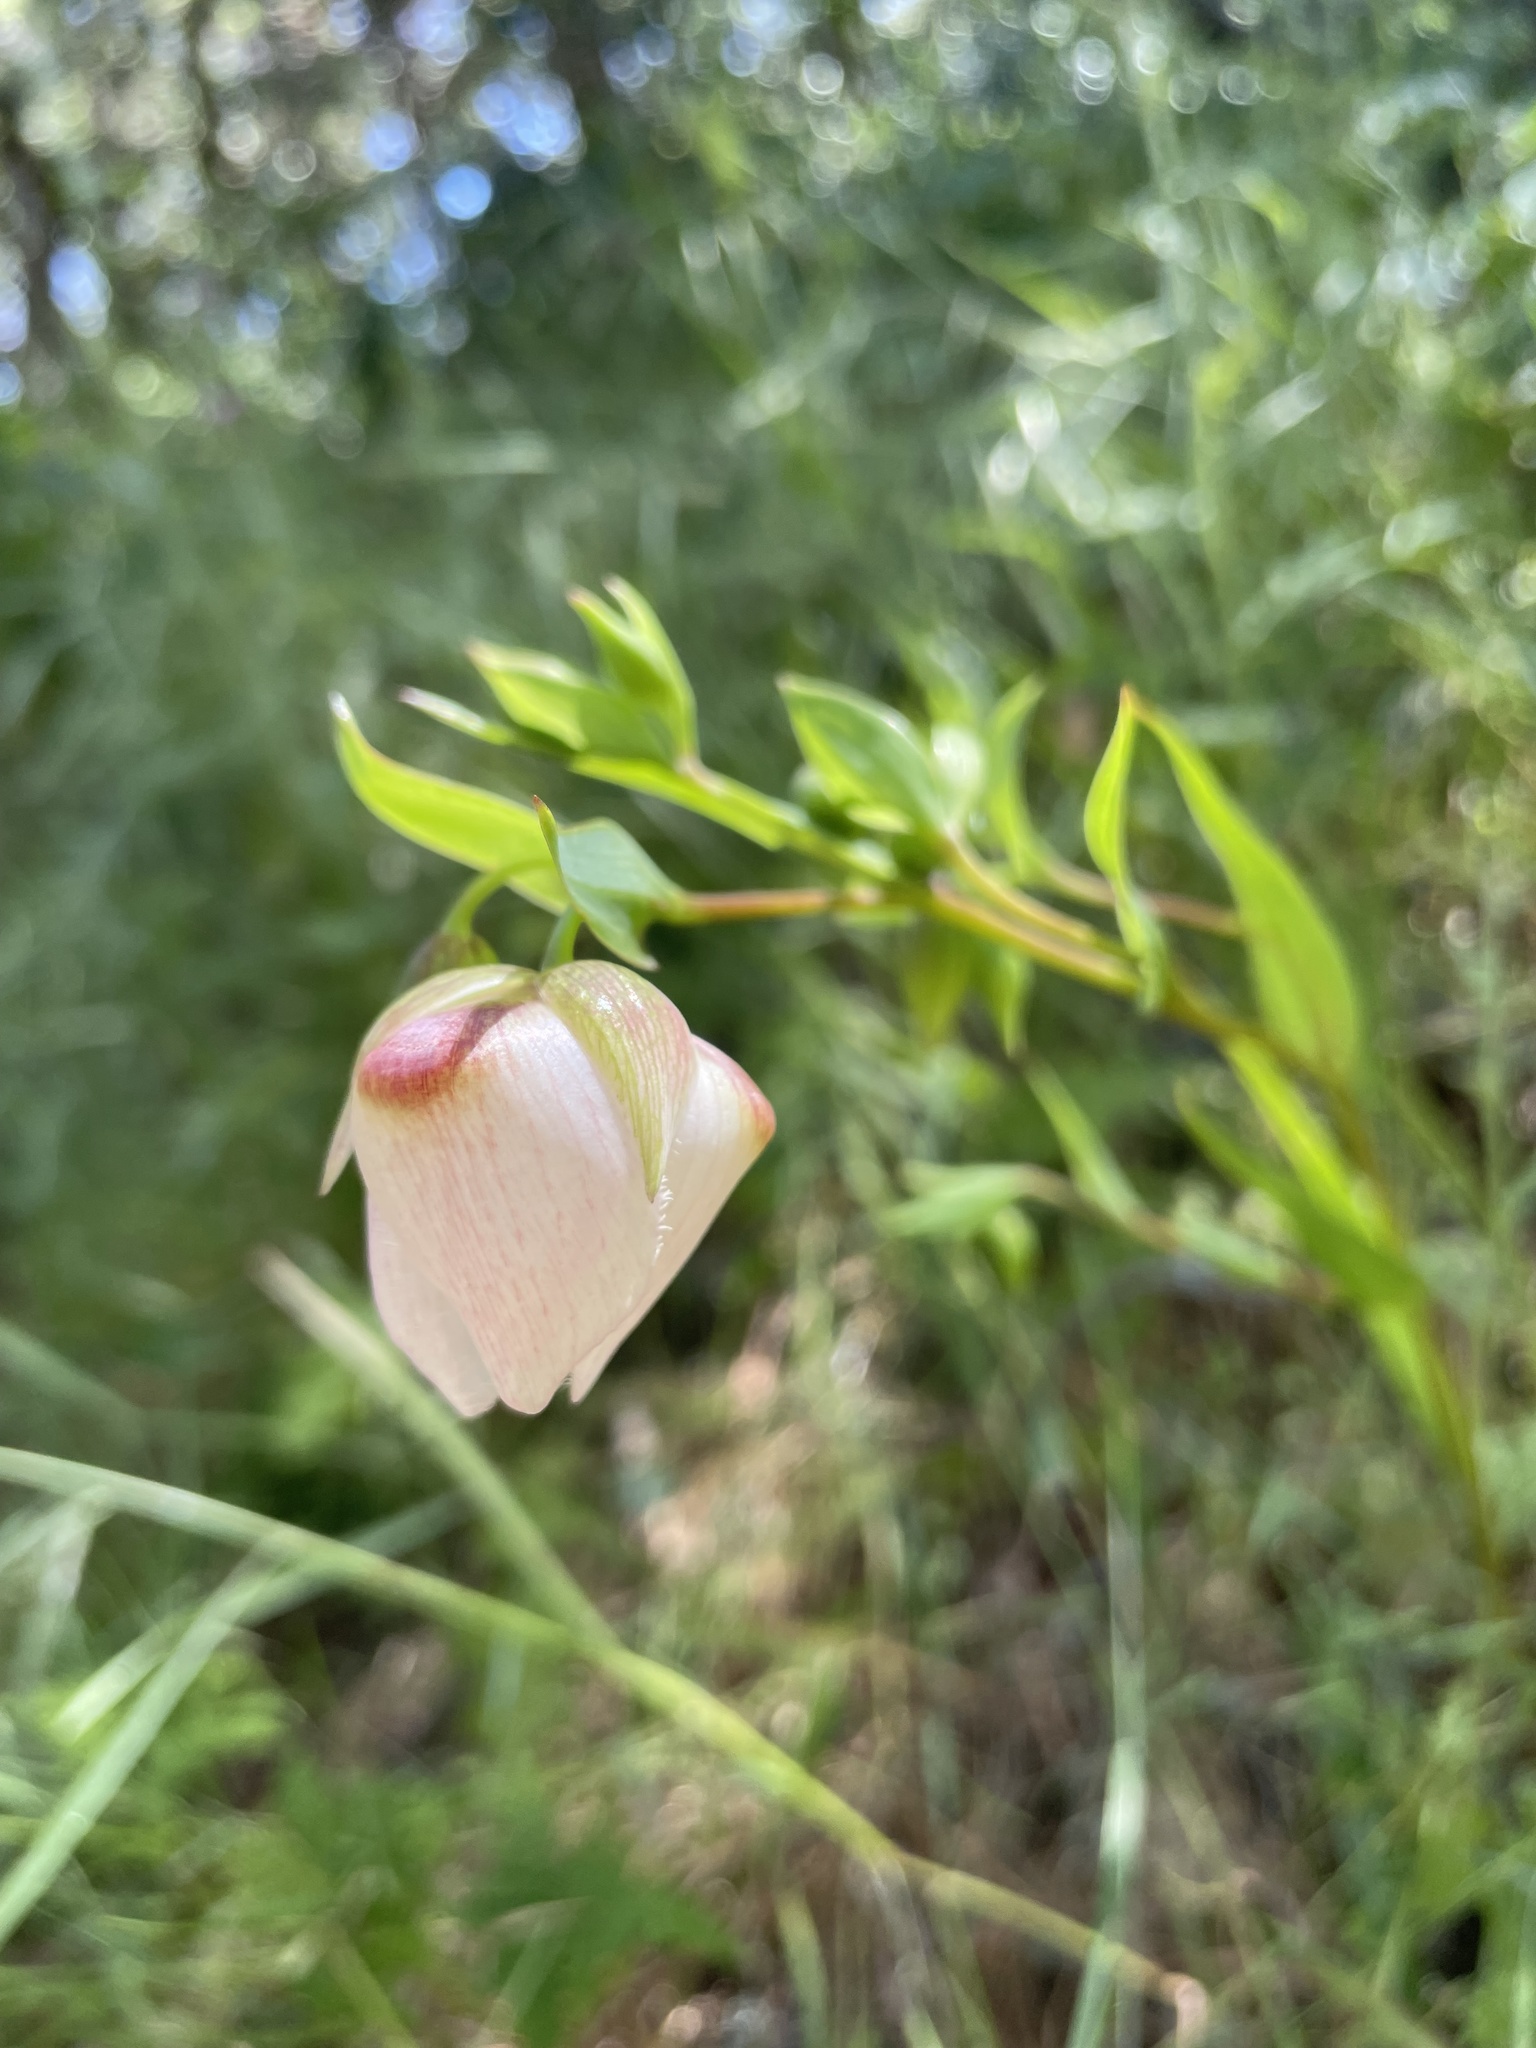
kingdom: Plantae
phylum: Tracheophyta
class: Liliopsida
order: Liliales
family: Liliaceae
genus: Calochortus
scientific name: Calochortus albus
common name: Fairy-lantern
